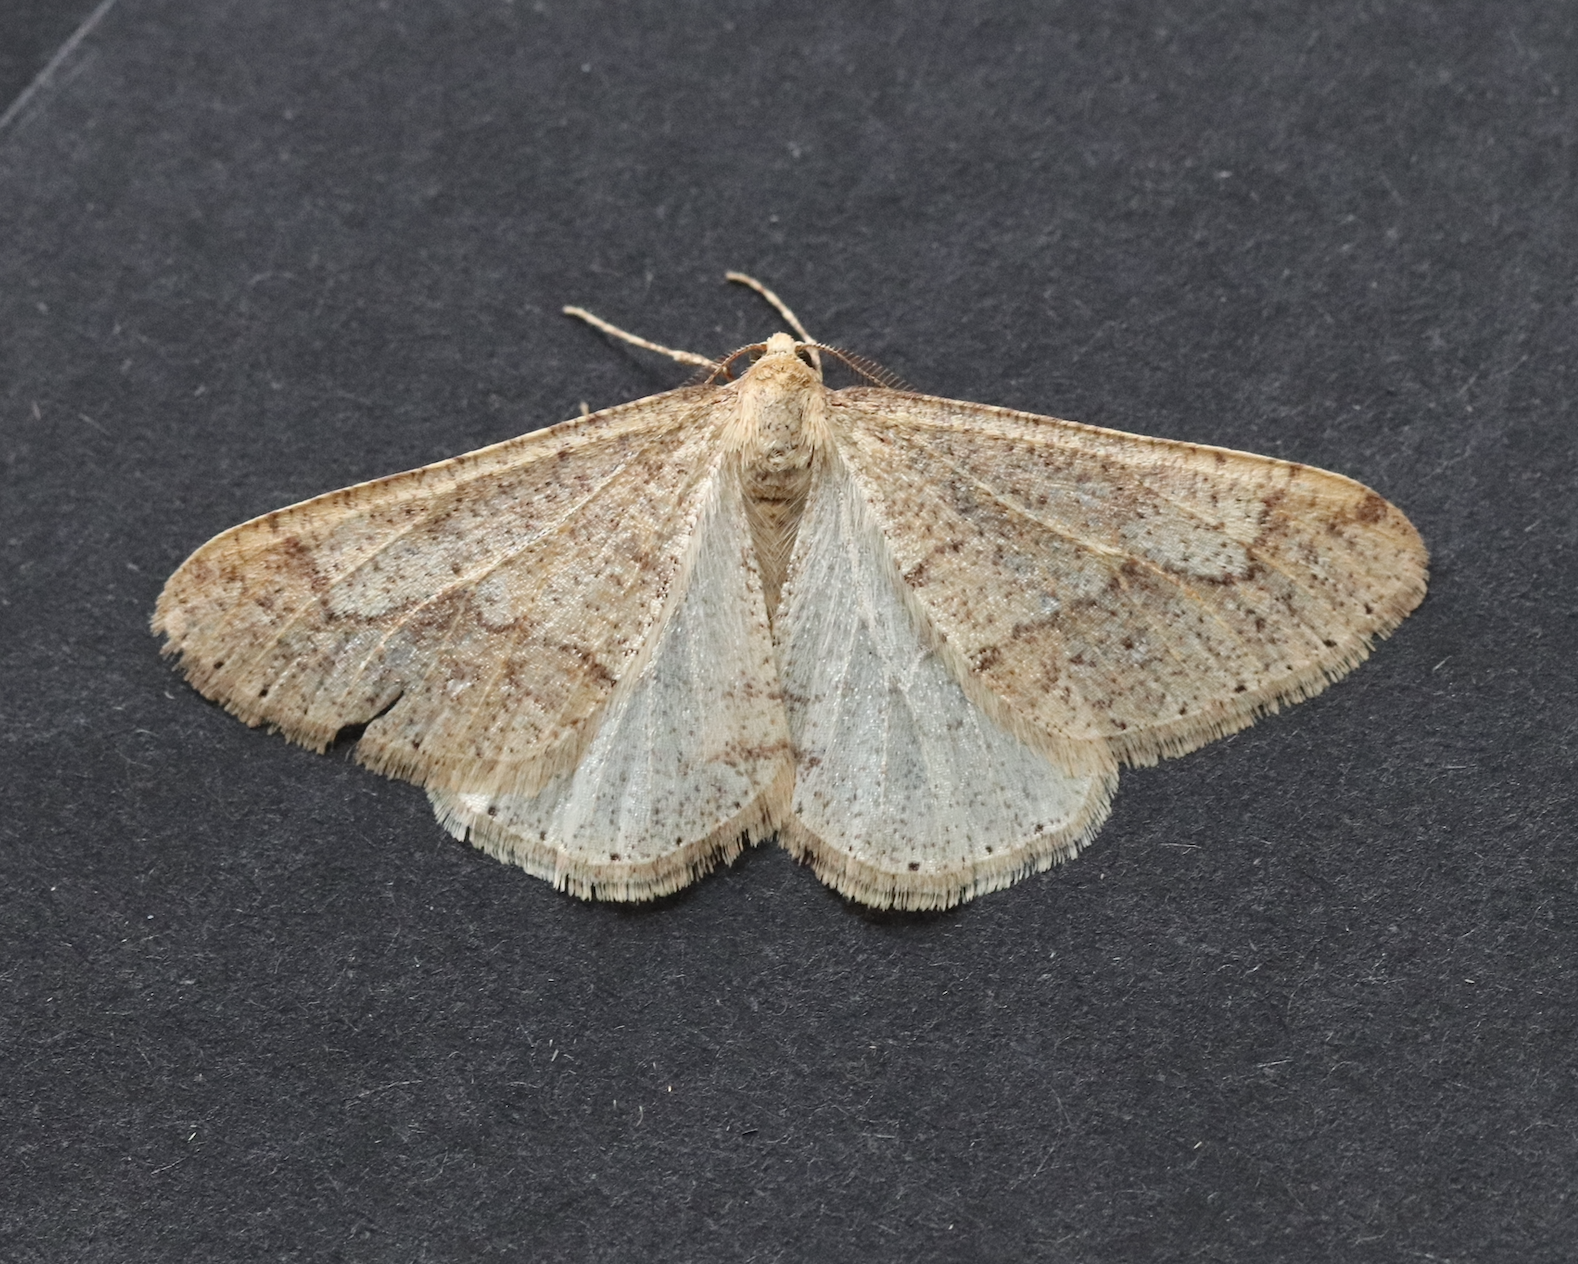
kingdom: Animalia
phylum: Arthropoda
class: Insecta
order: Lepidoptera
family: Geometridae
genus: Agriopis
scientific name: Agriopis marginaria
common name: Dotted border
